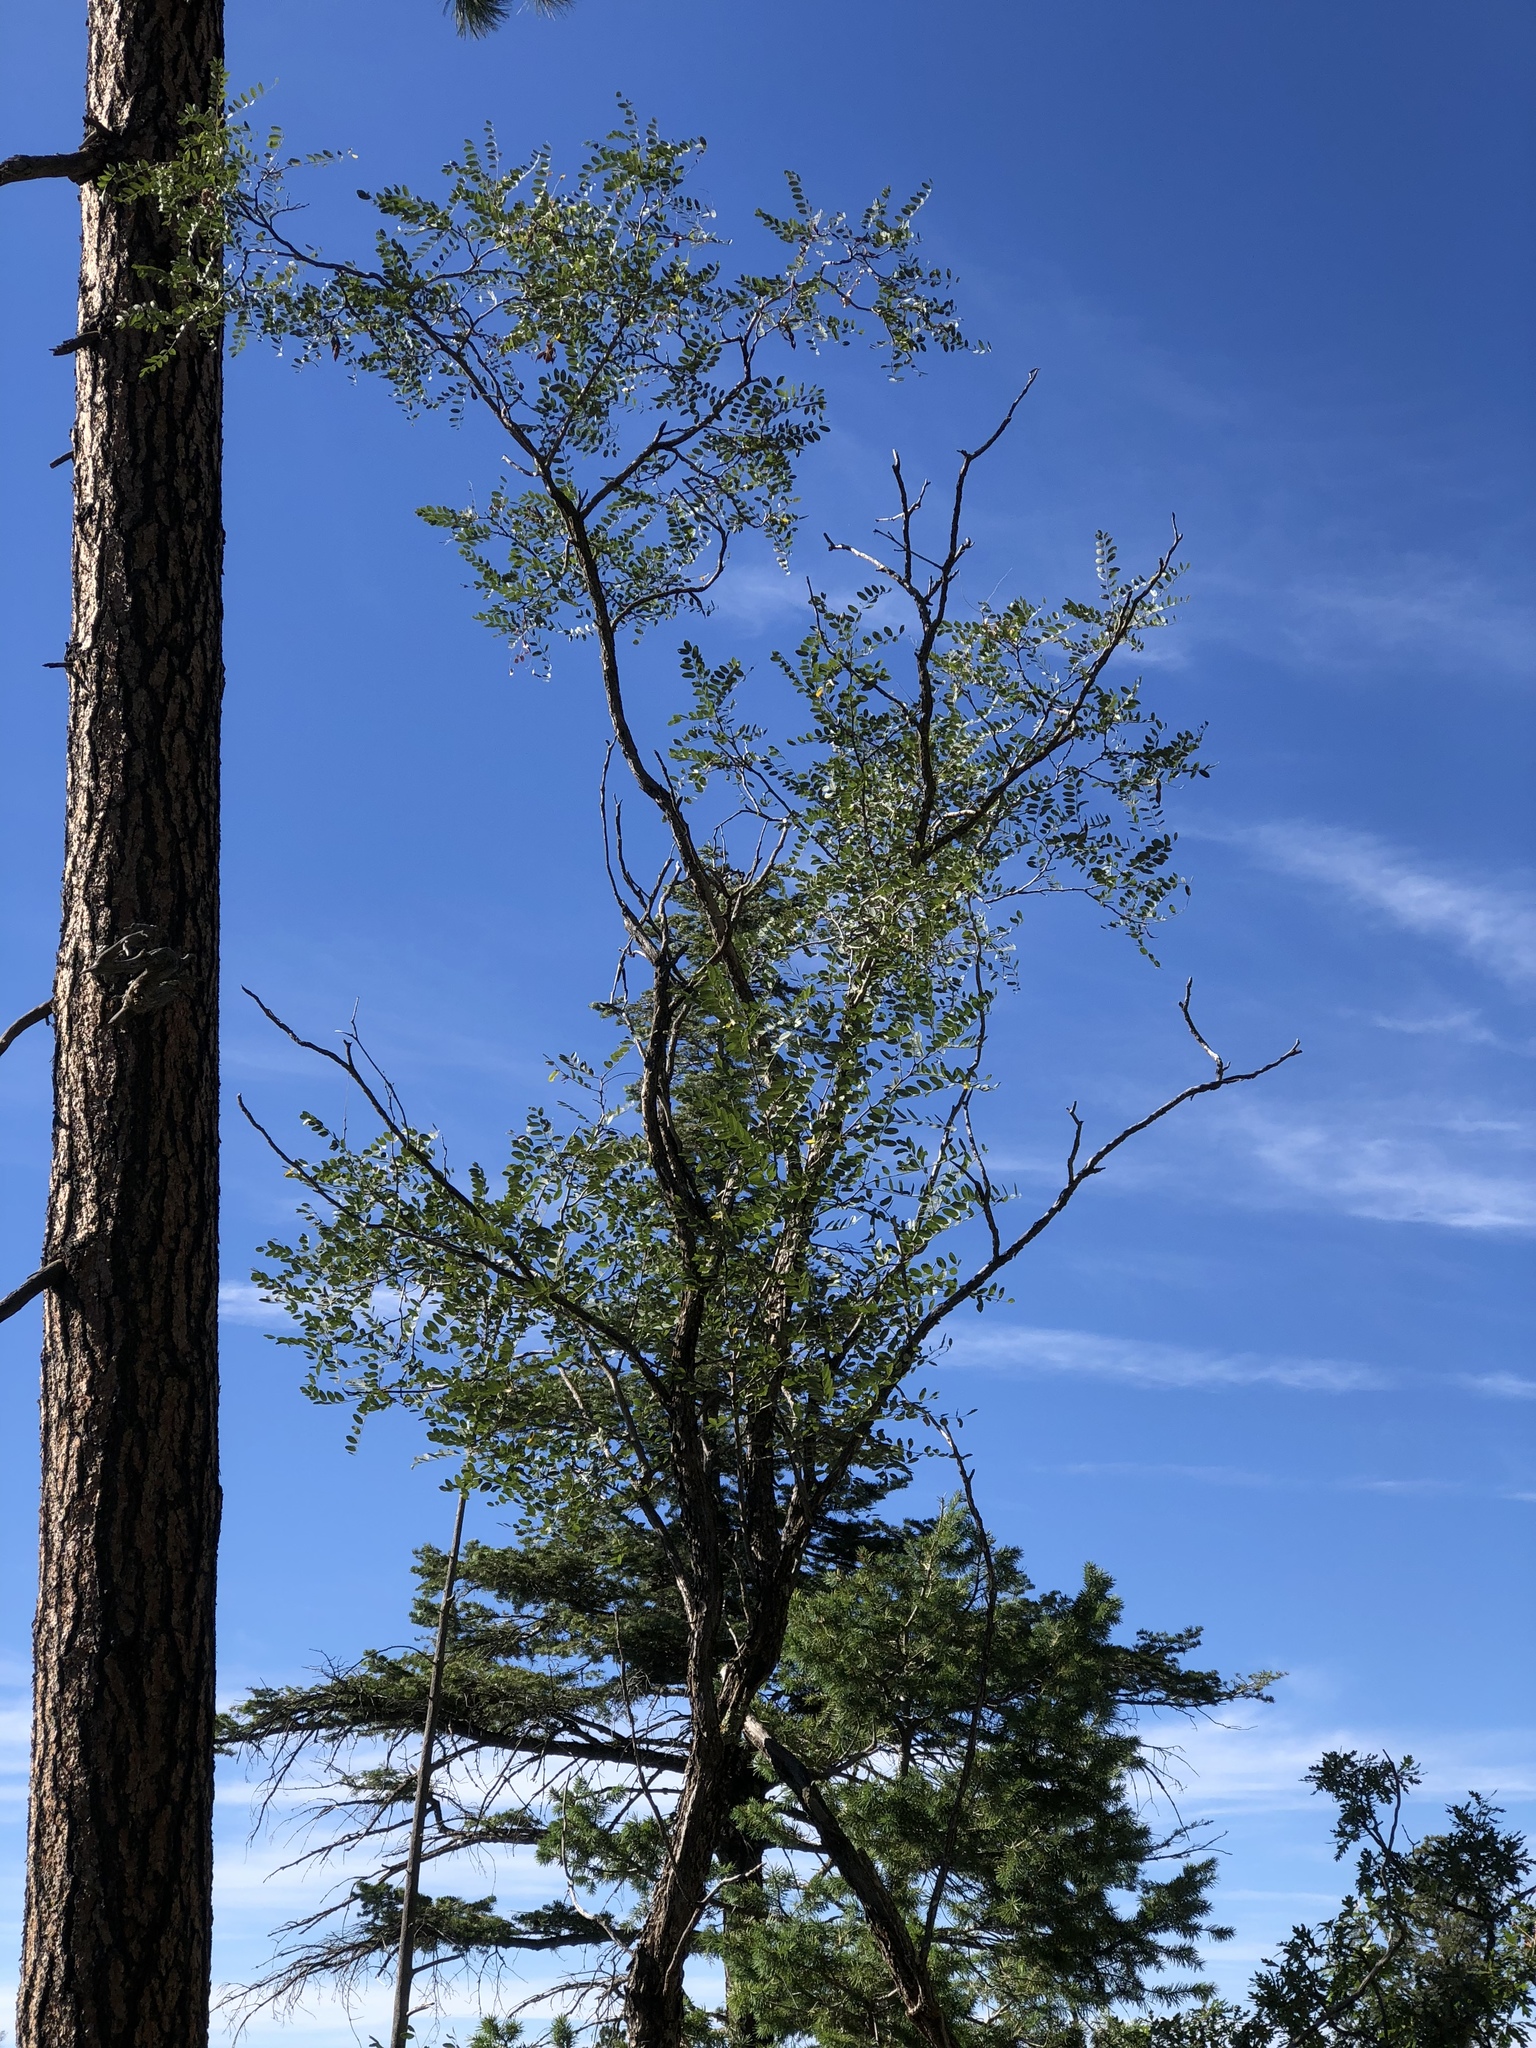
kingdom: Plantae
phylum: Tracheophyta
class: Magnoliopsida
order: Fabales
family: Fabaceae
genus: Robinia
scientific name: Robinia neomexicana
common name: New mexico locust
